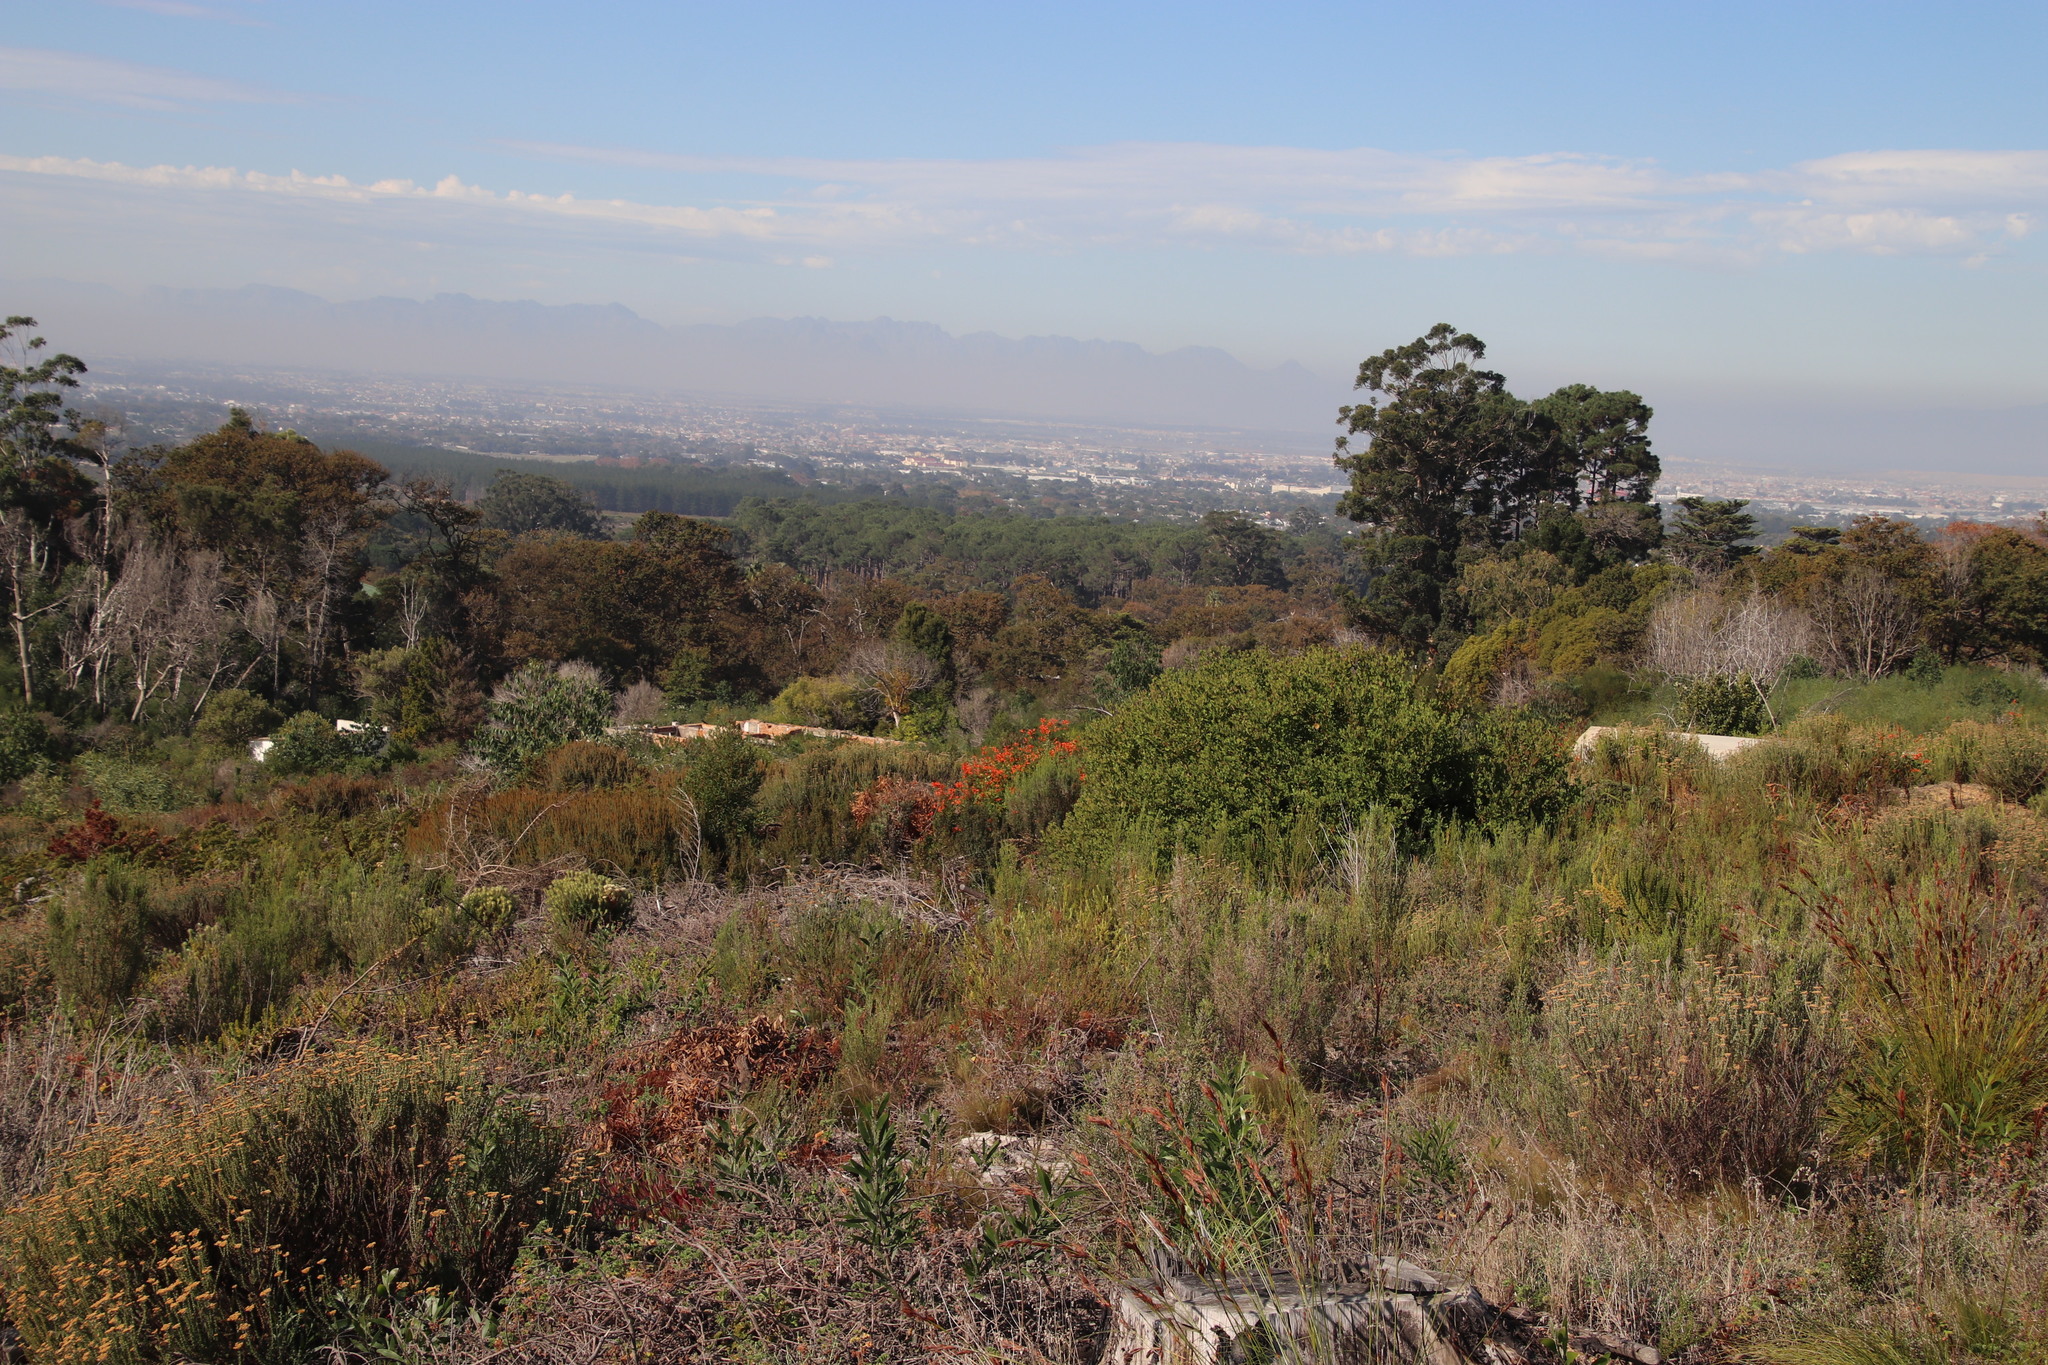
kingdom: Plantae
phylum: Tracheophyta
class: Magnoliopsida
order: Lamiales
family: Bignoniaceae
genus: Tecomaria
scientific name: Tecomaria capensis
